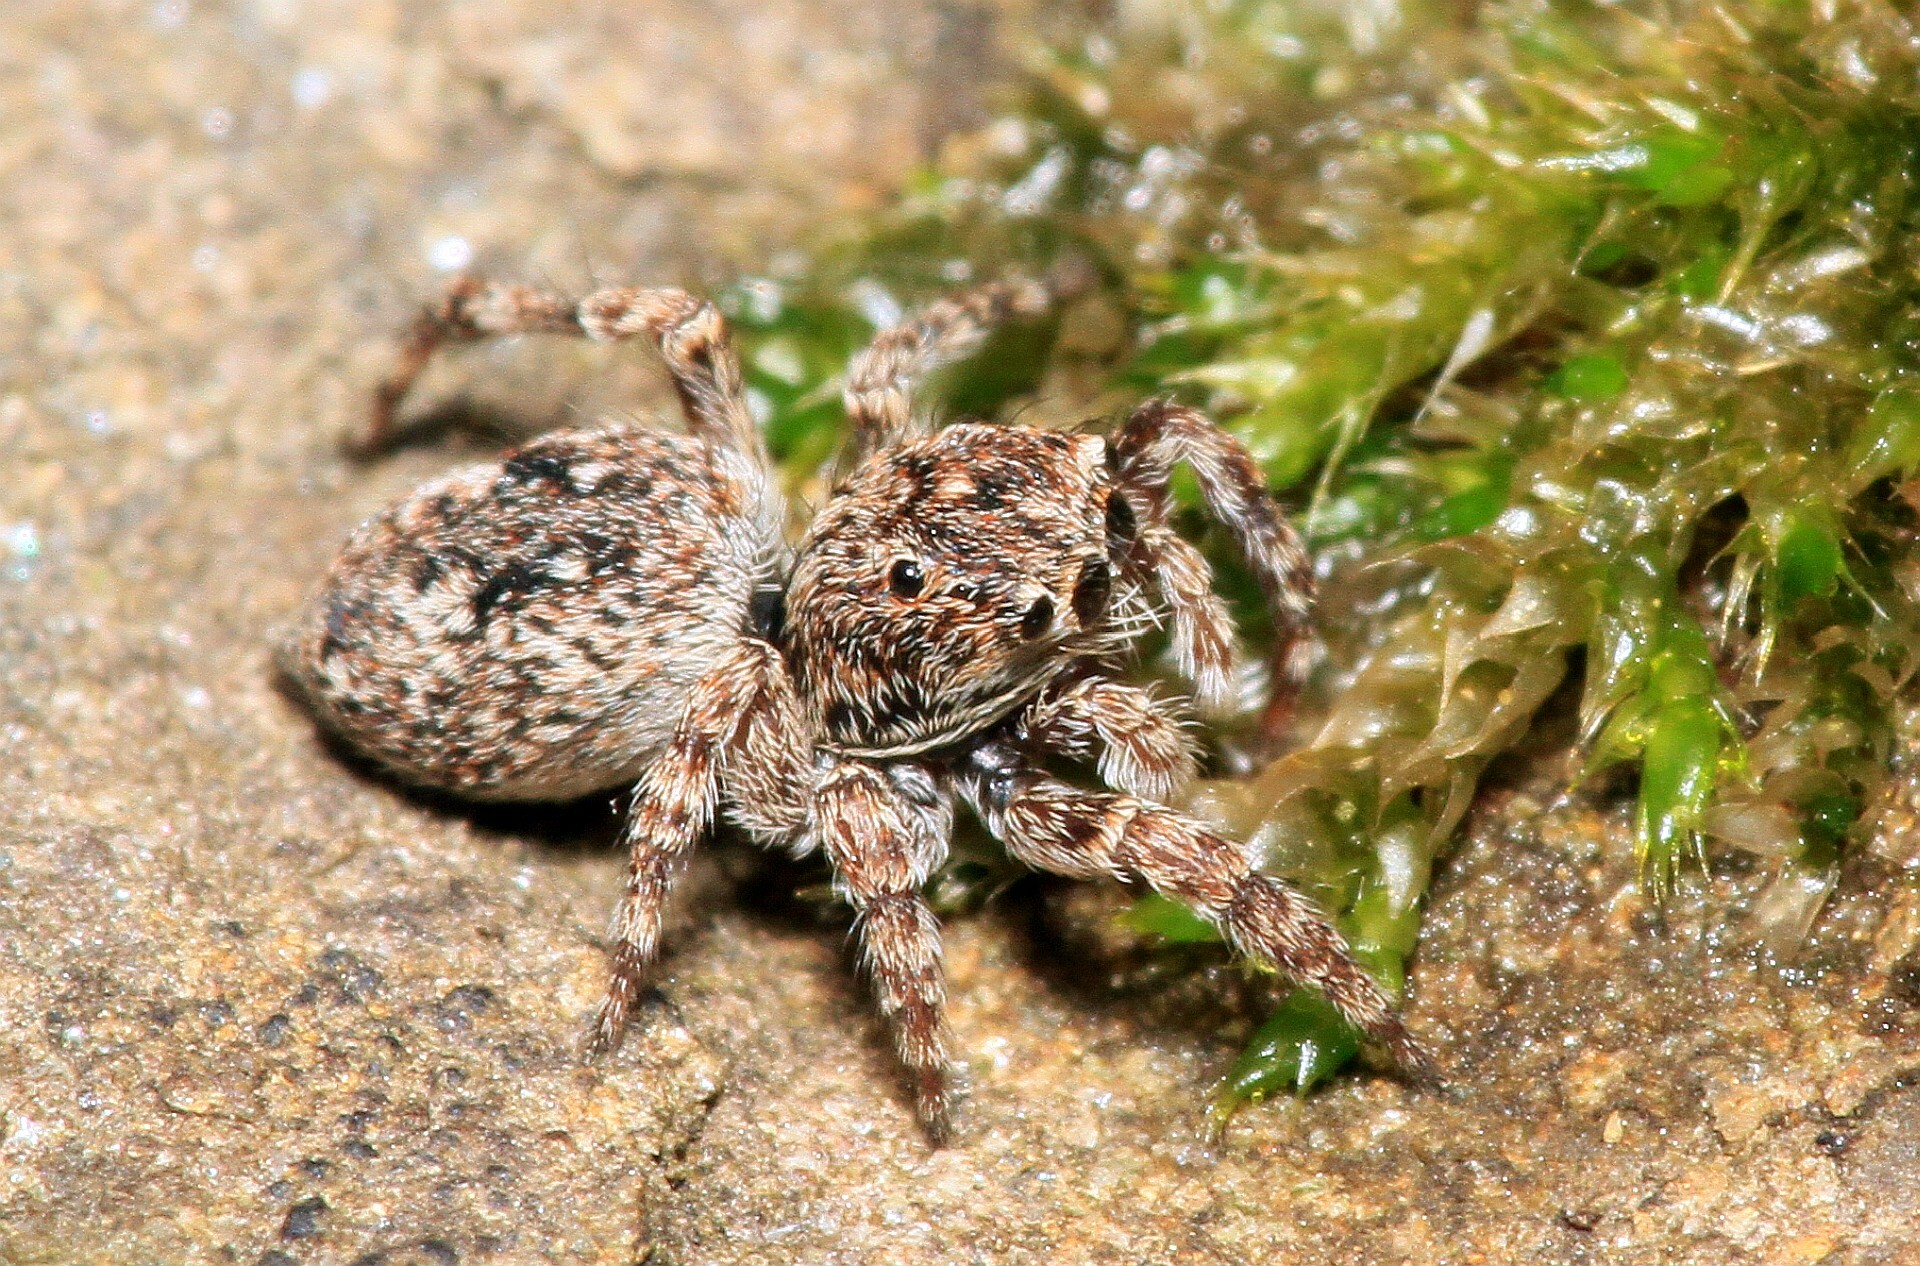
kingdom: Animalia
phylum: Arthropoda
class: Arachnida
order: Araneae
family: Salticidae
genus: Attulus
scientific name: Attulus pubescens
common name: Jumping spider
